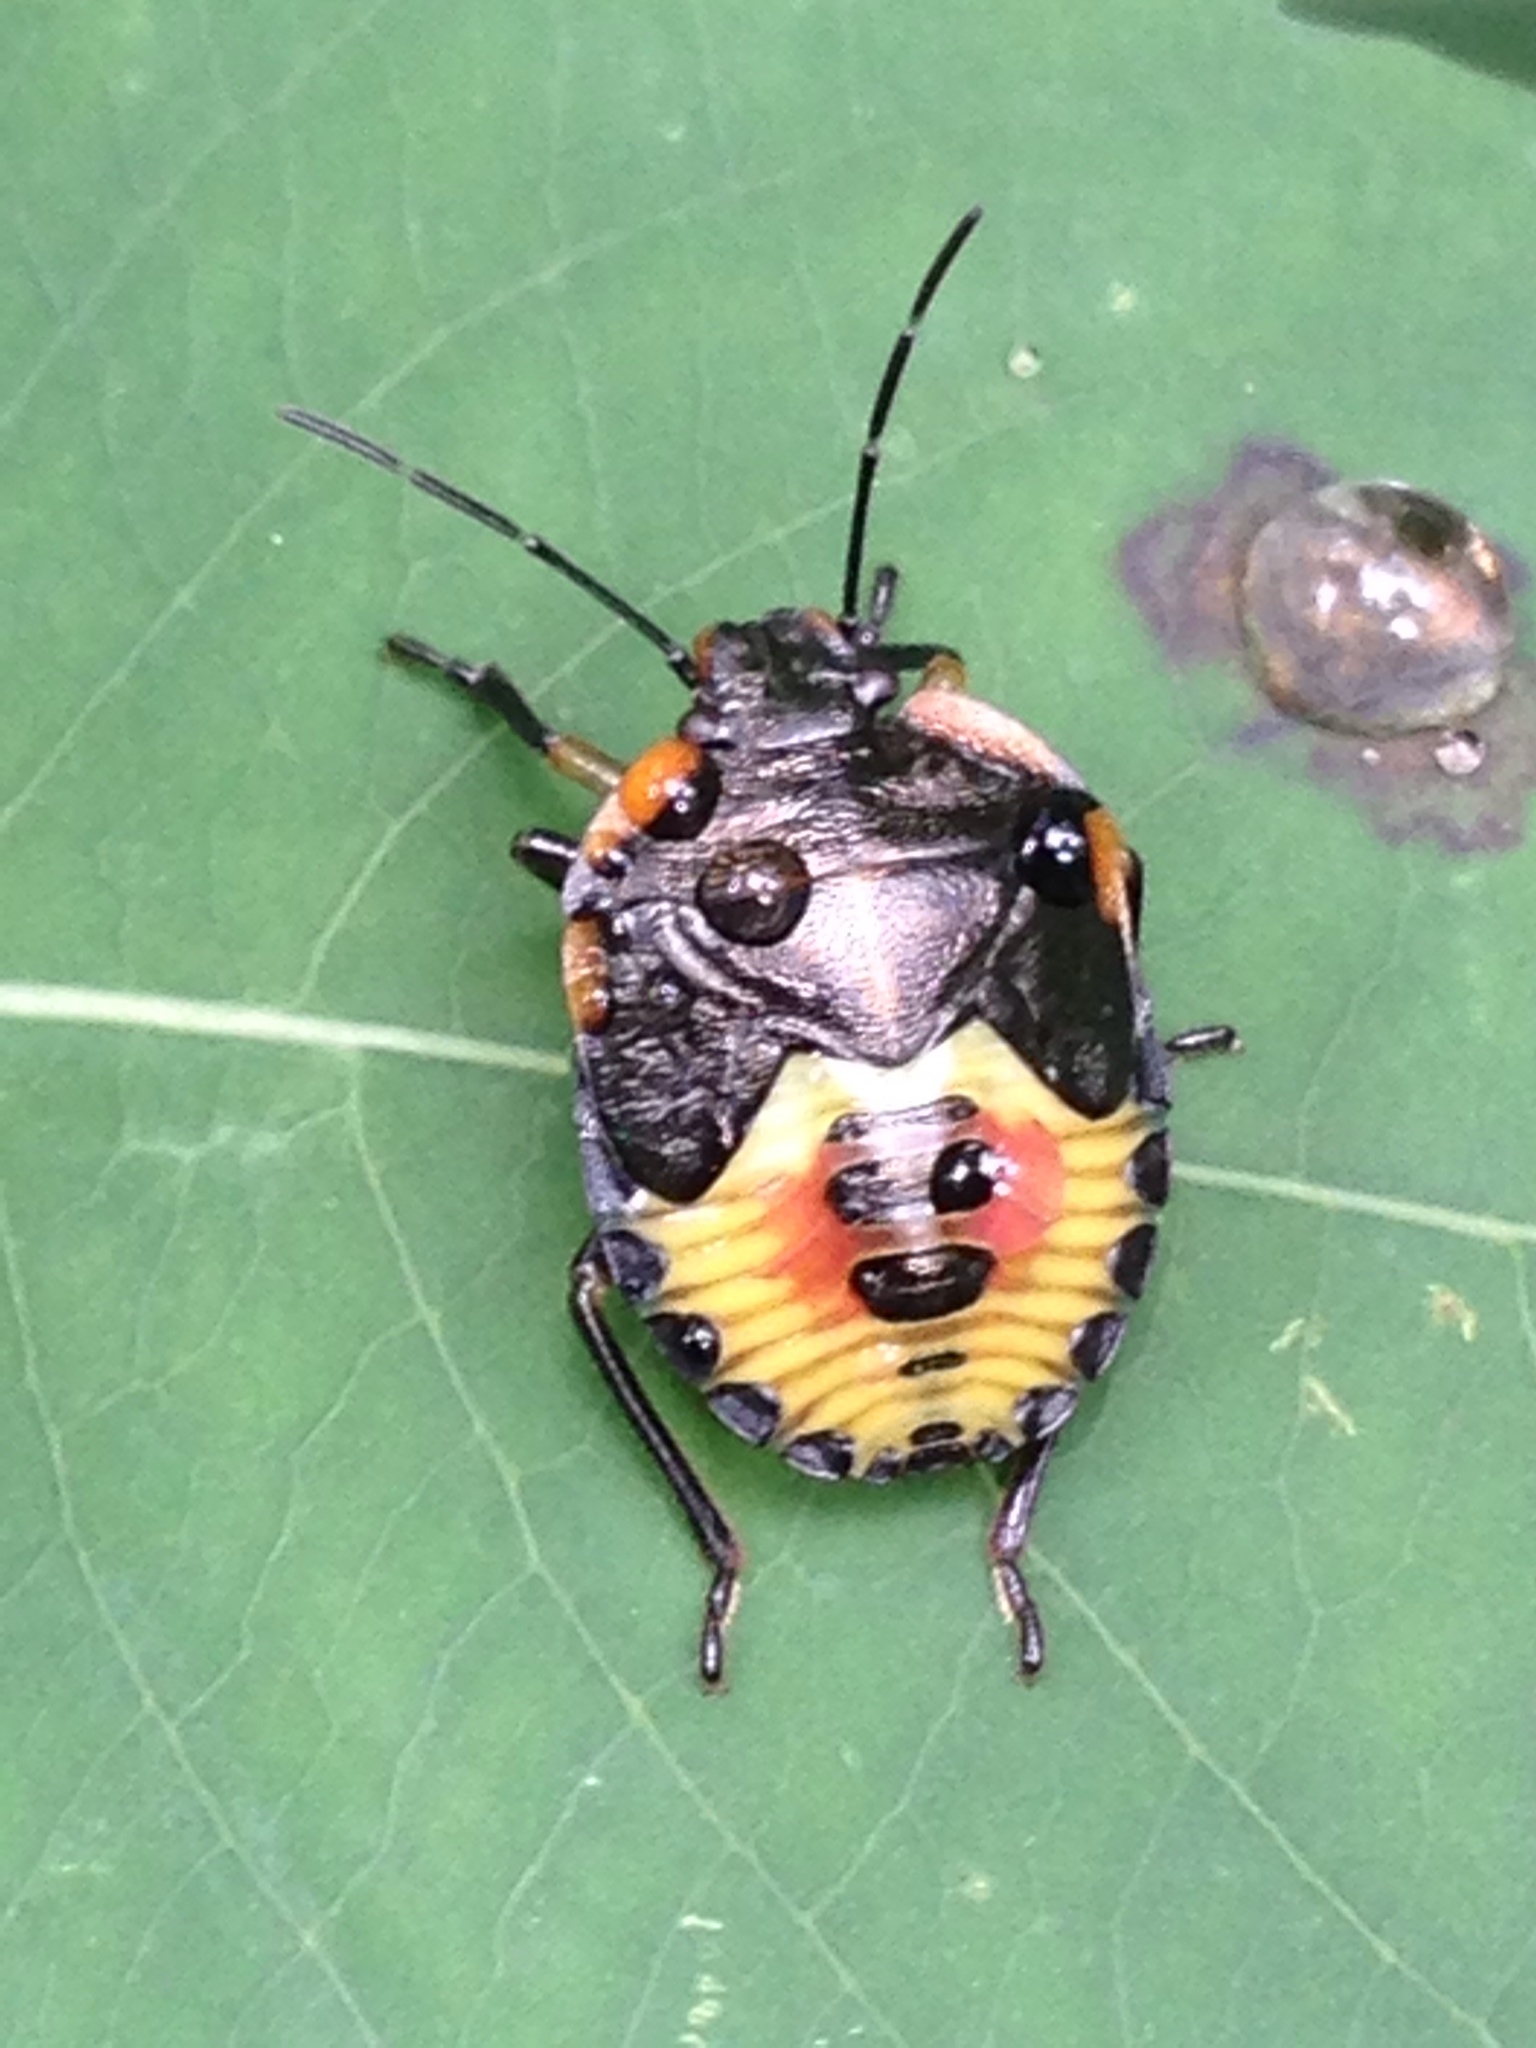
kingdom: Animalia
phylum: Arthropoda
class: Insecta
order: Hemiptera
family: Pentatomidae
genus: Chinavia
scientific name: Chinavia hilaris
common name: Green stink bug
